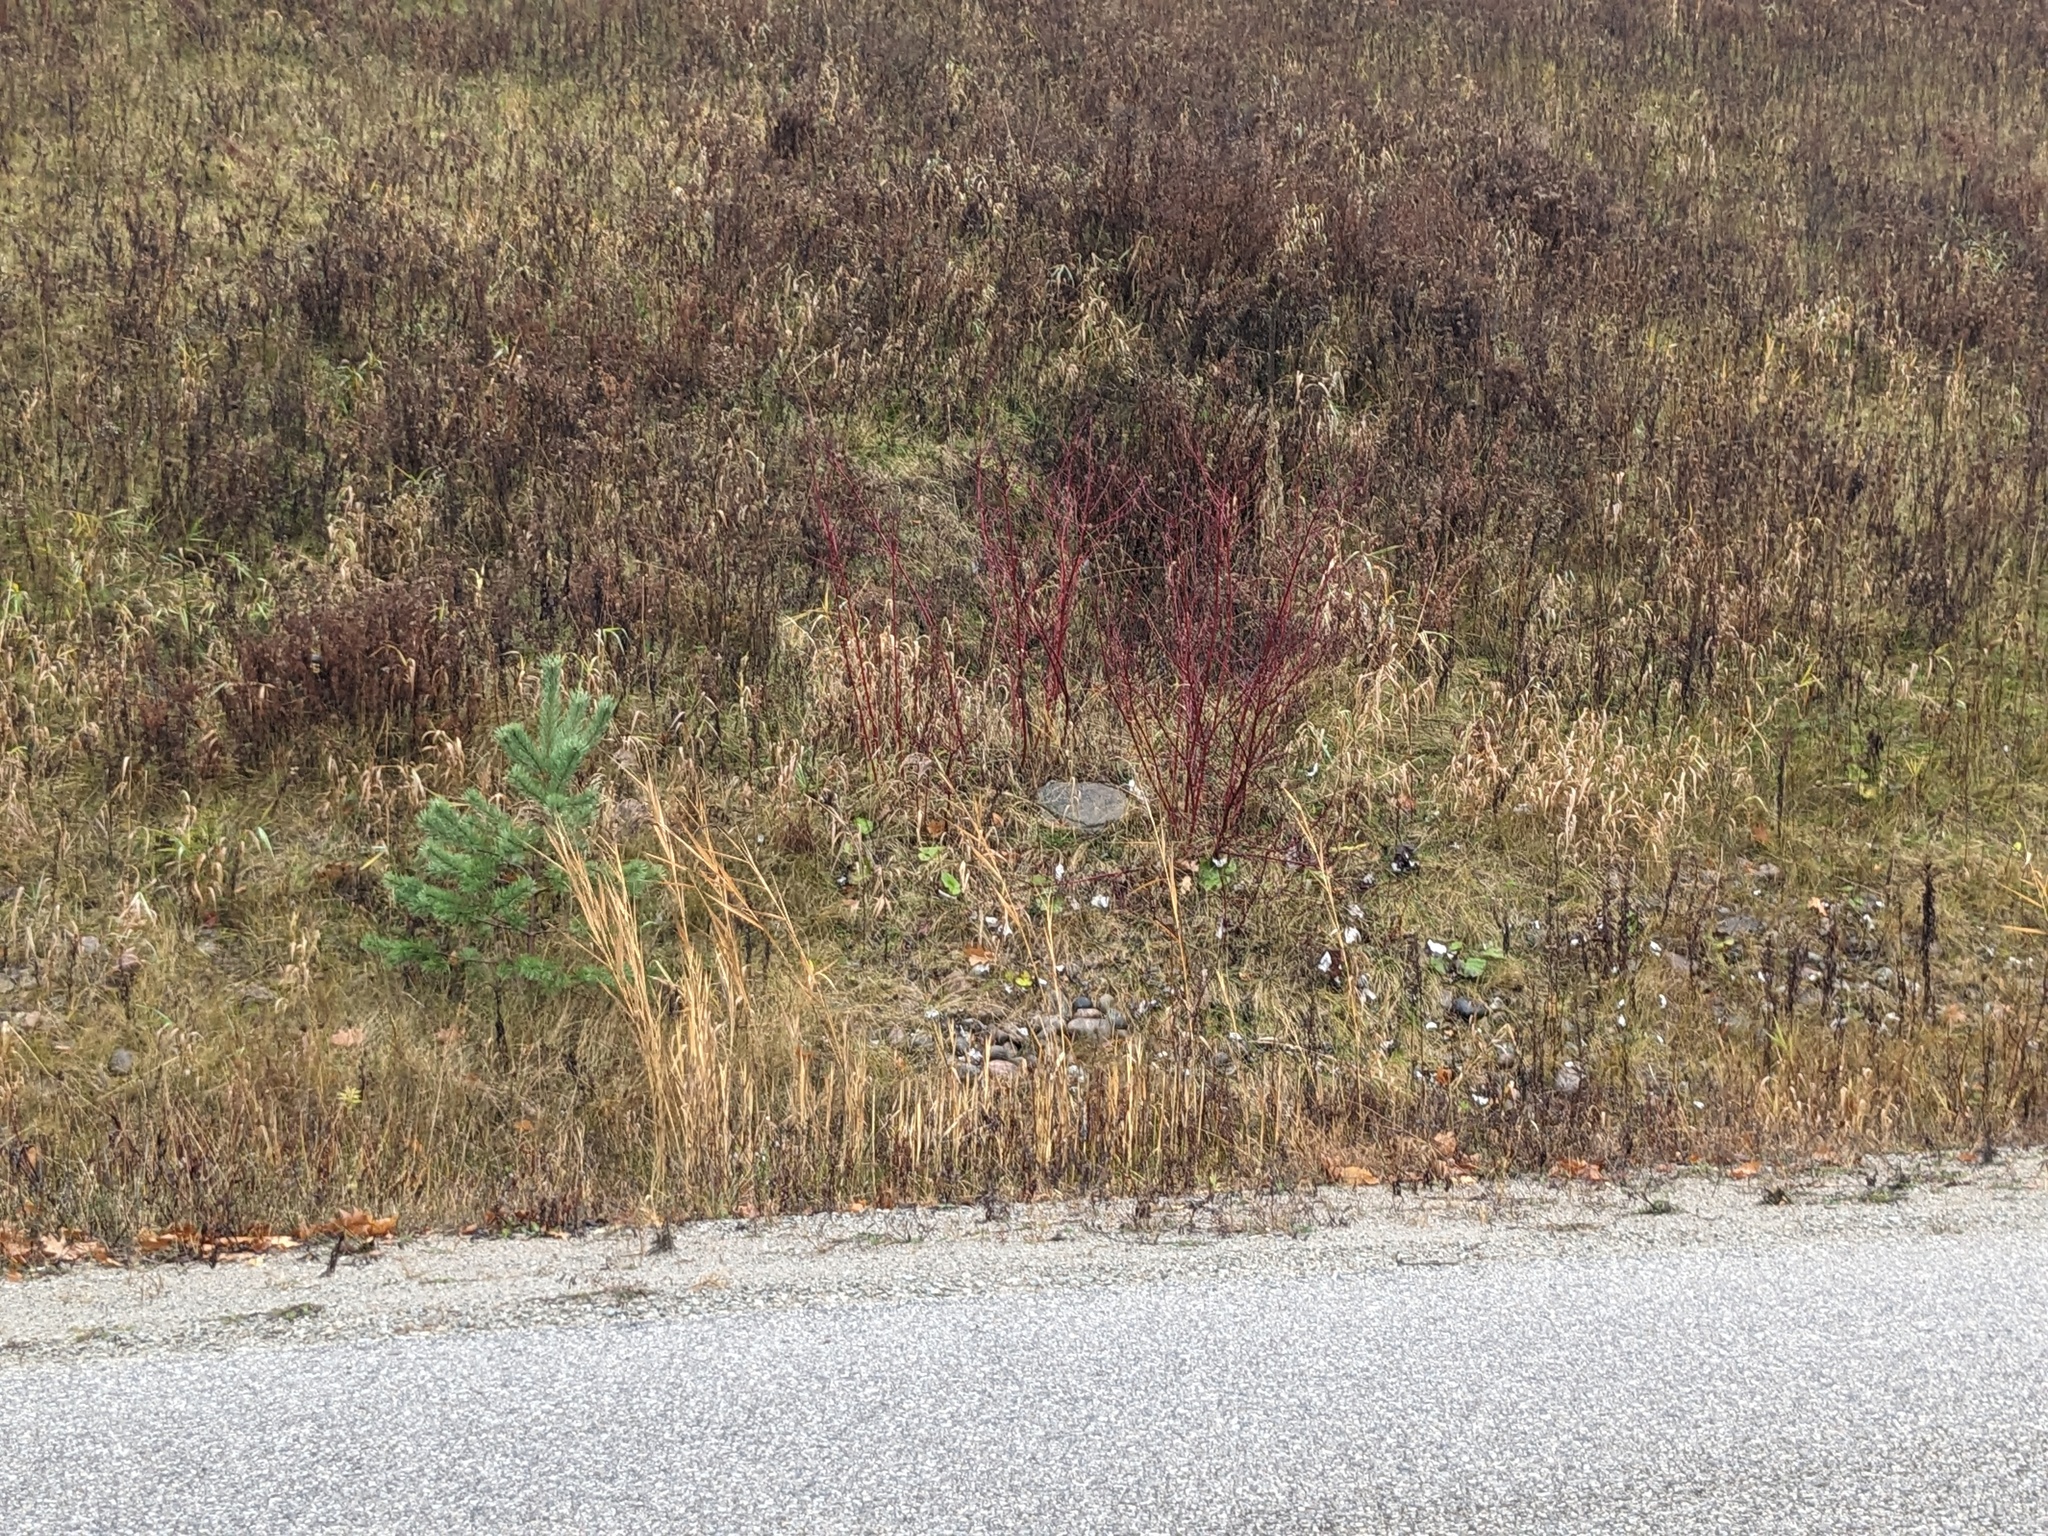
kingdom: Plantae
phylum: Tracheophyta
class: Liliopsida
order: Poales
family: Poaceae
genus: Phragmites
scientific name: Phragmites australis
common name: Common reed
